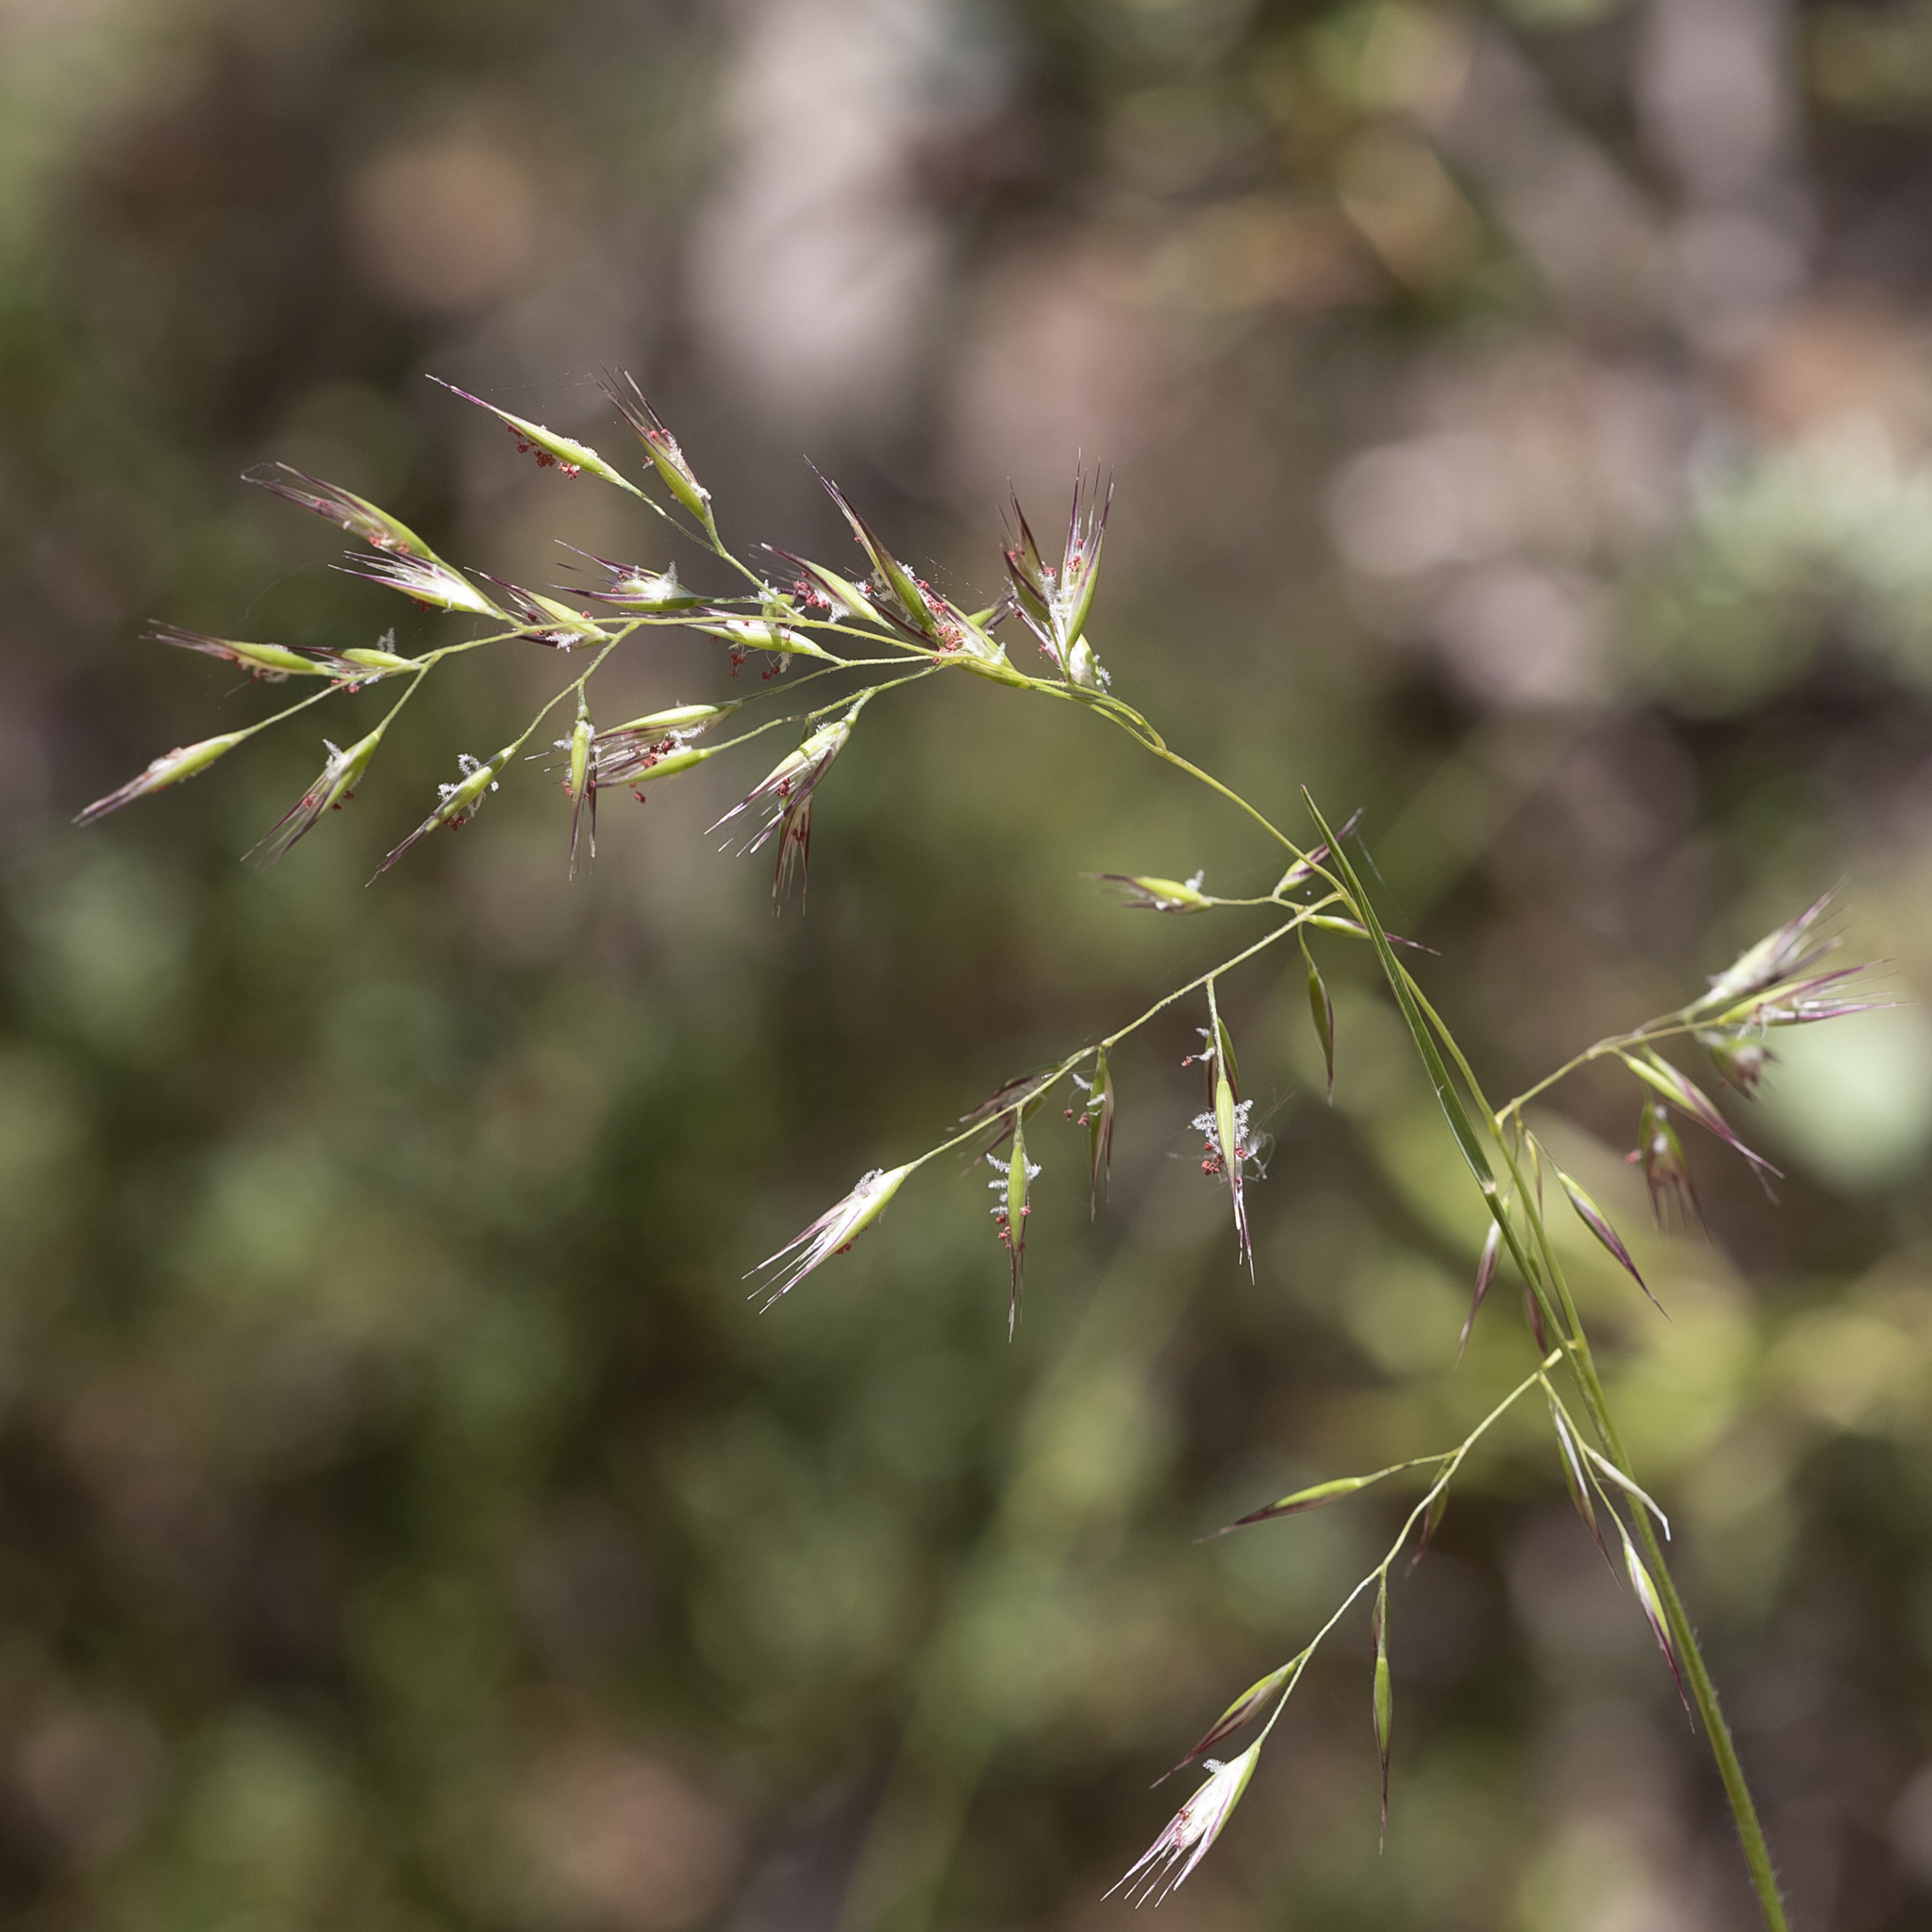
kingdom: Plantae
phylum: Tracheophyta
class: Liliopsida
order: Poales
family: Poaceae
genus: Rytidosperma
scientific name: Rytidosperma tenuius
